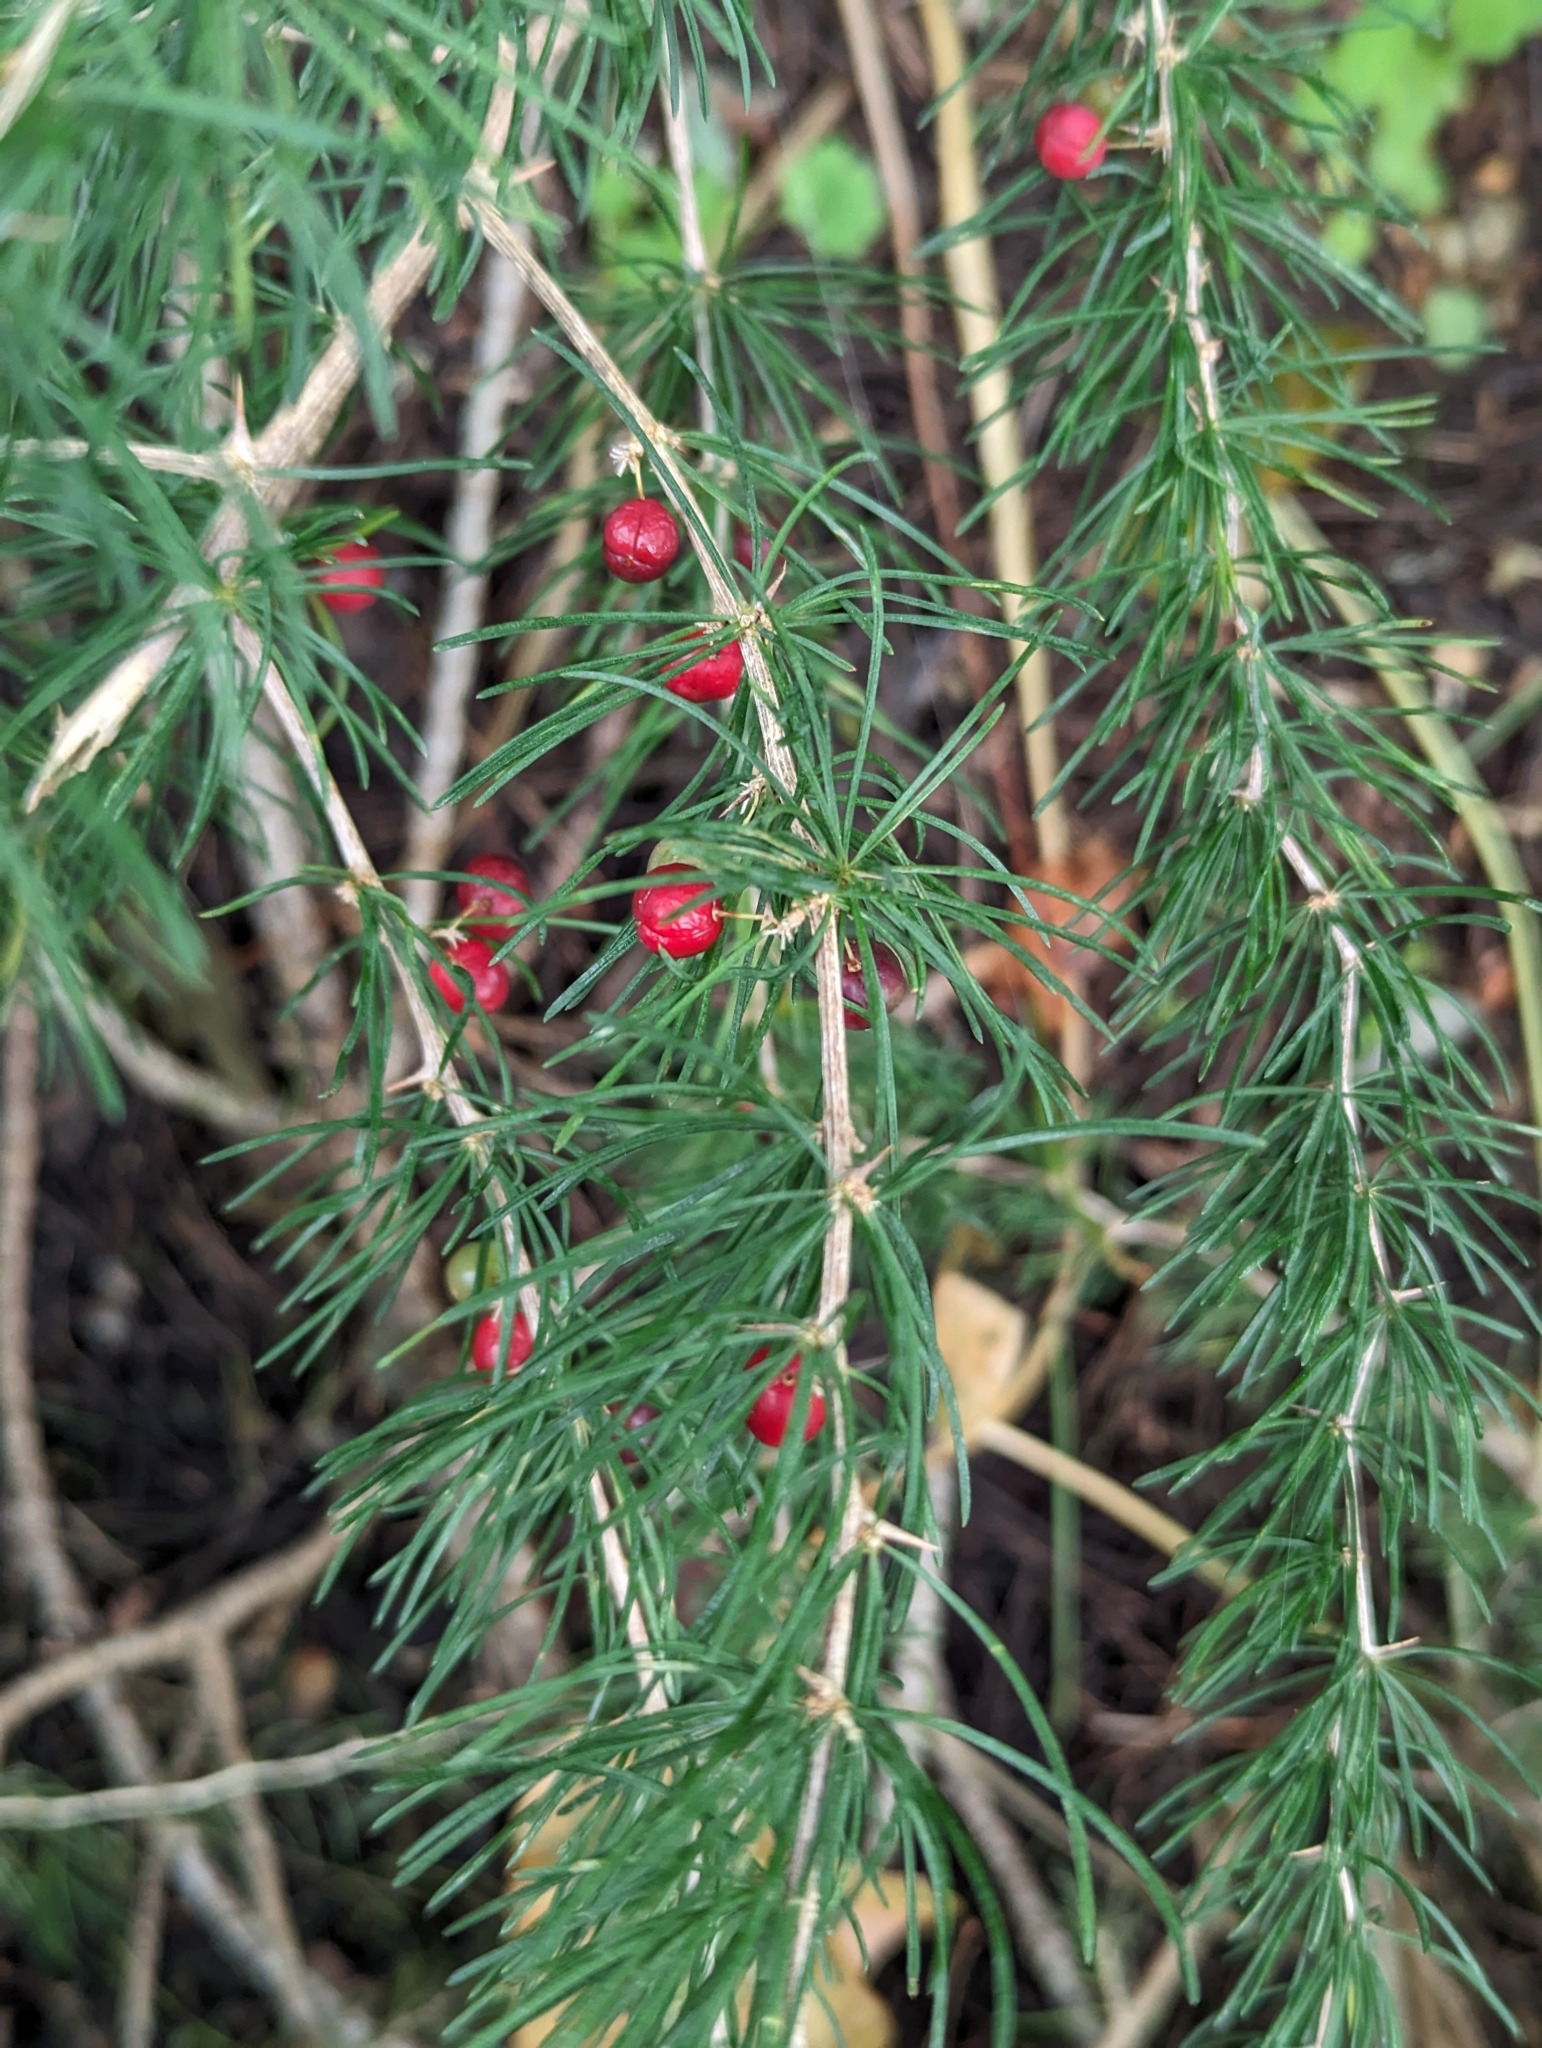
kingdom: Plantae
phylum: Tracheophyta
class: Liliopsida
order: Asparagales
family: Asparagaceae
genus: Asparagus
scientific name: Asparagus albus
